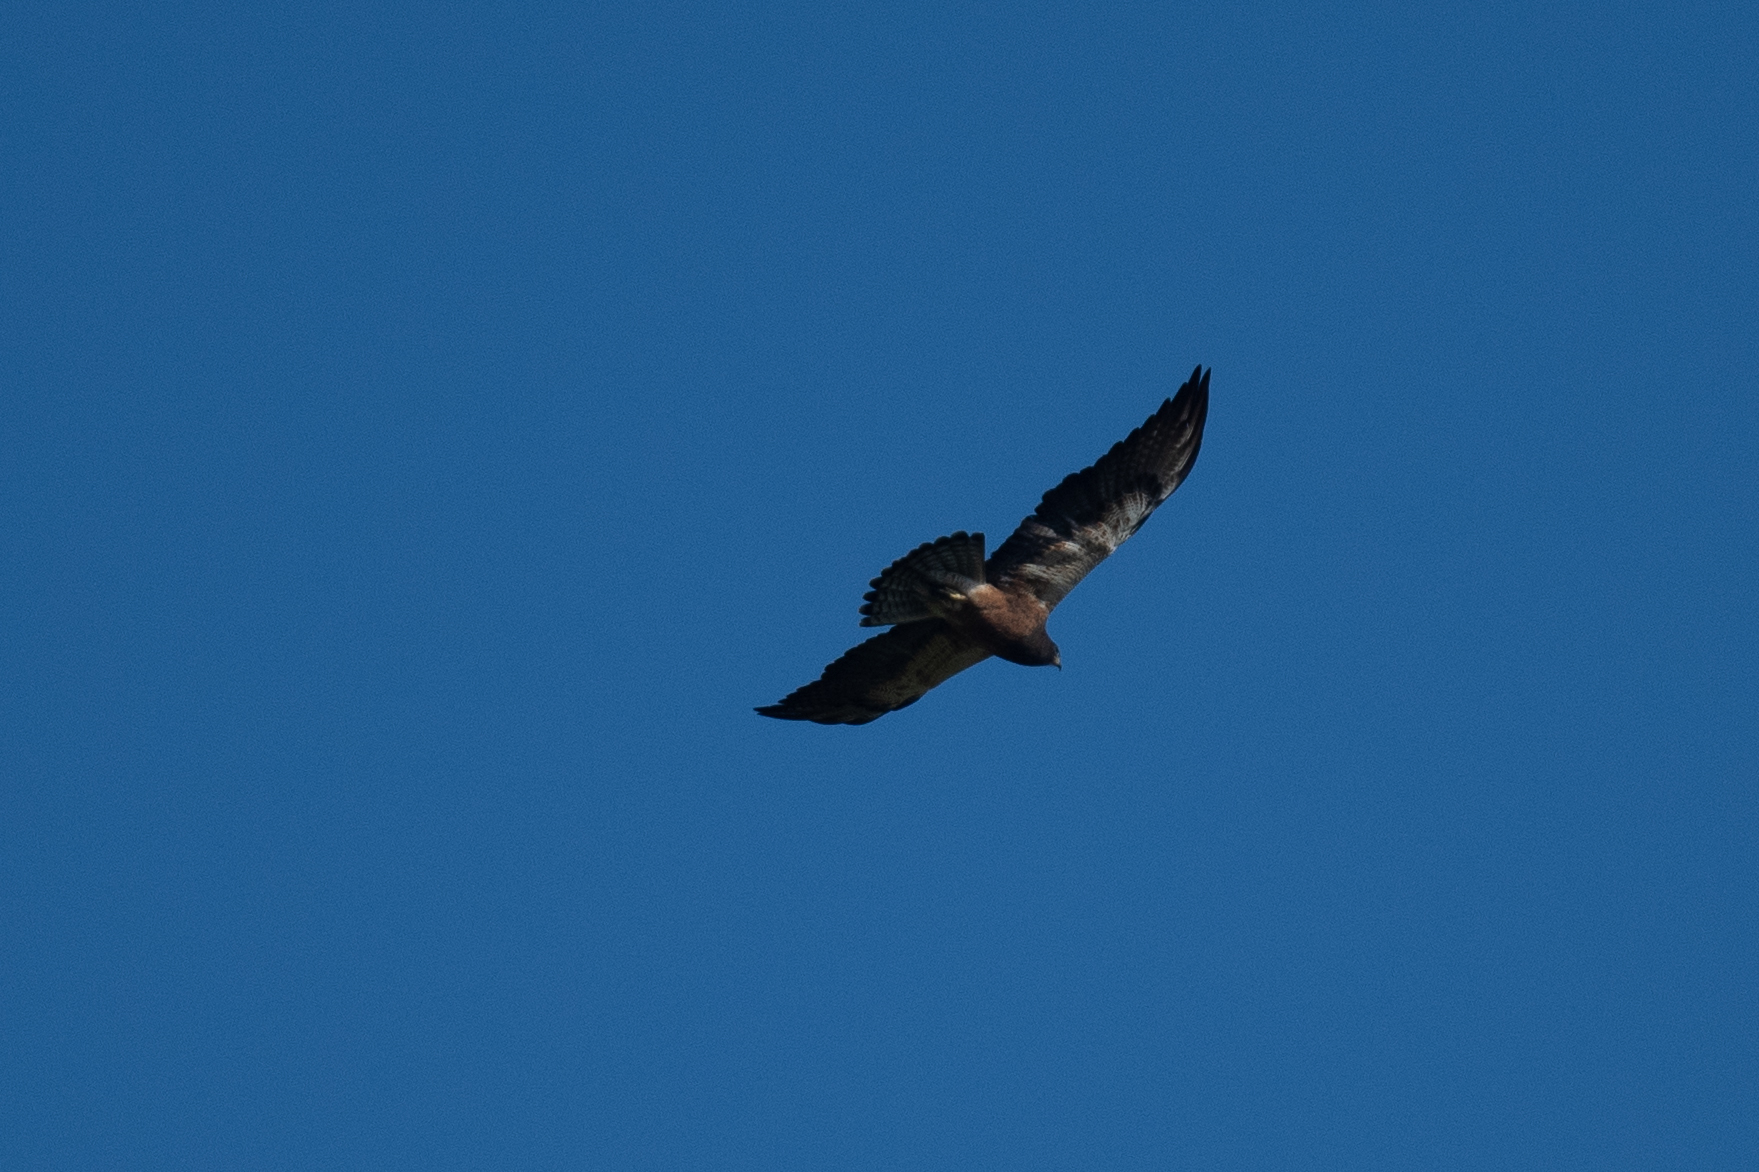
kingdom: Animalia
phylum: Chordata
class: Aves
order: Accipitriformes
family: Accipitridae
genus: Buteo
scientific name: Buteo swainsoni
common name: Swainson's hawk
